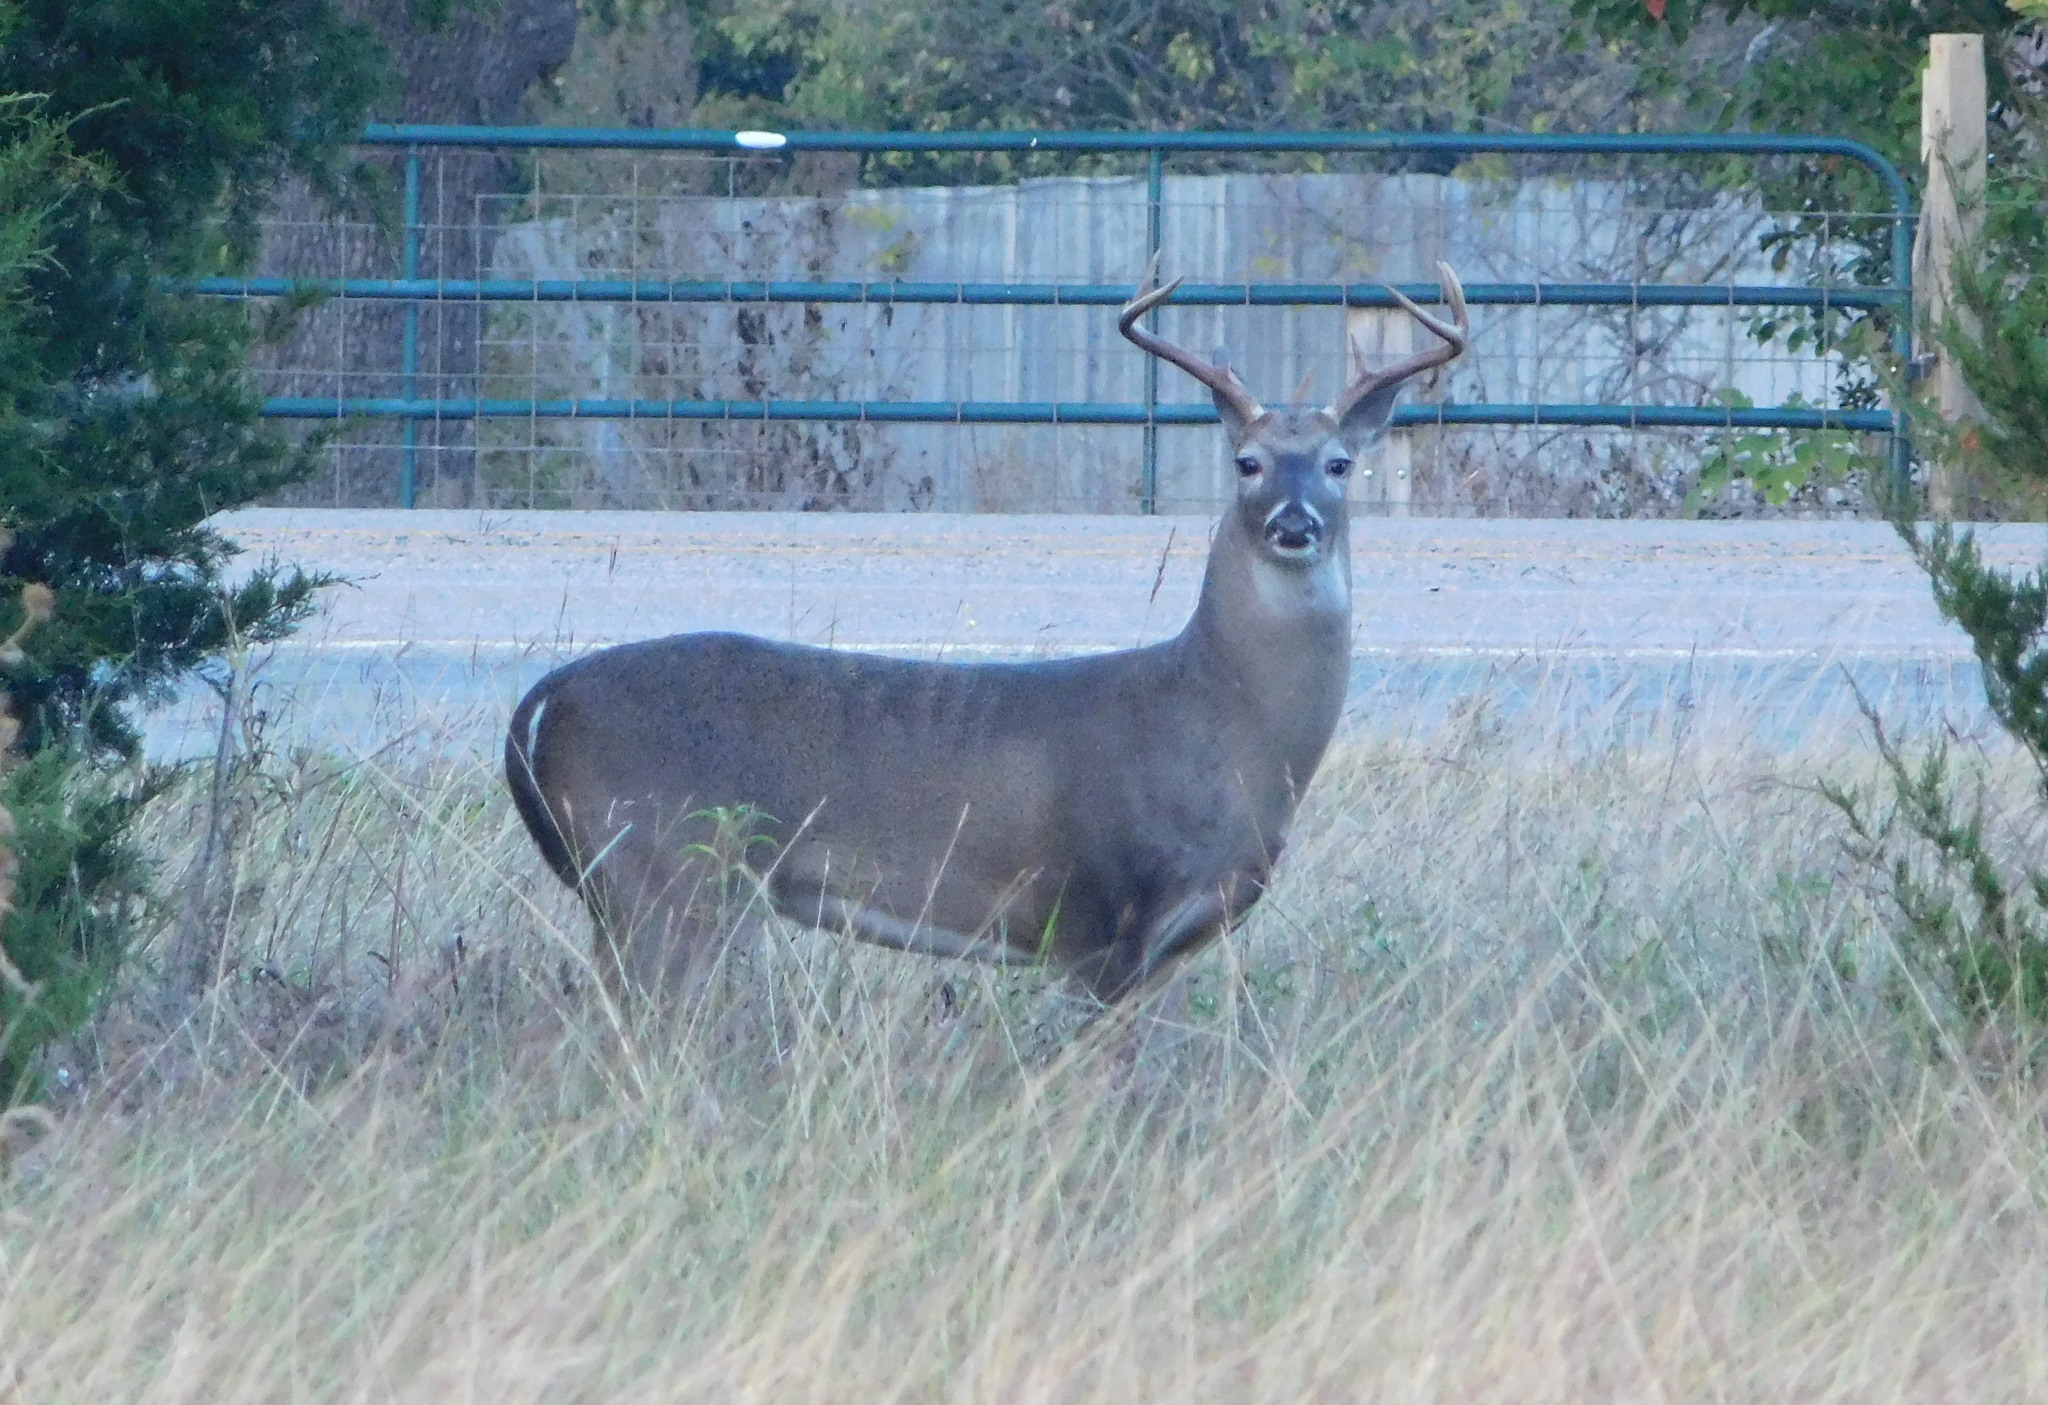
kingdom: Animalia
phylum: Chordata
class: Mammalia
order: Artiodactyla
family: Cervidae
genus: Odocoileus
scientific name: Odocoileus virginianus
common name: White-tailed deer
